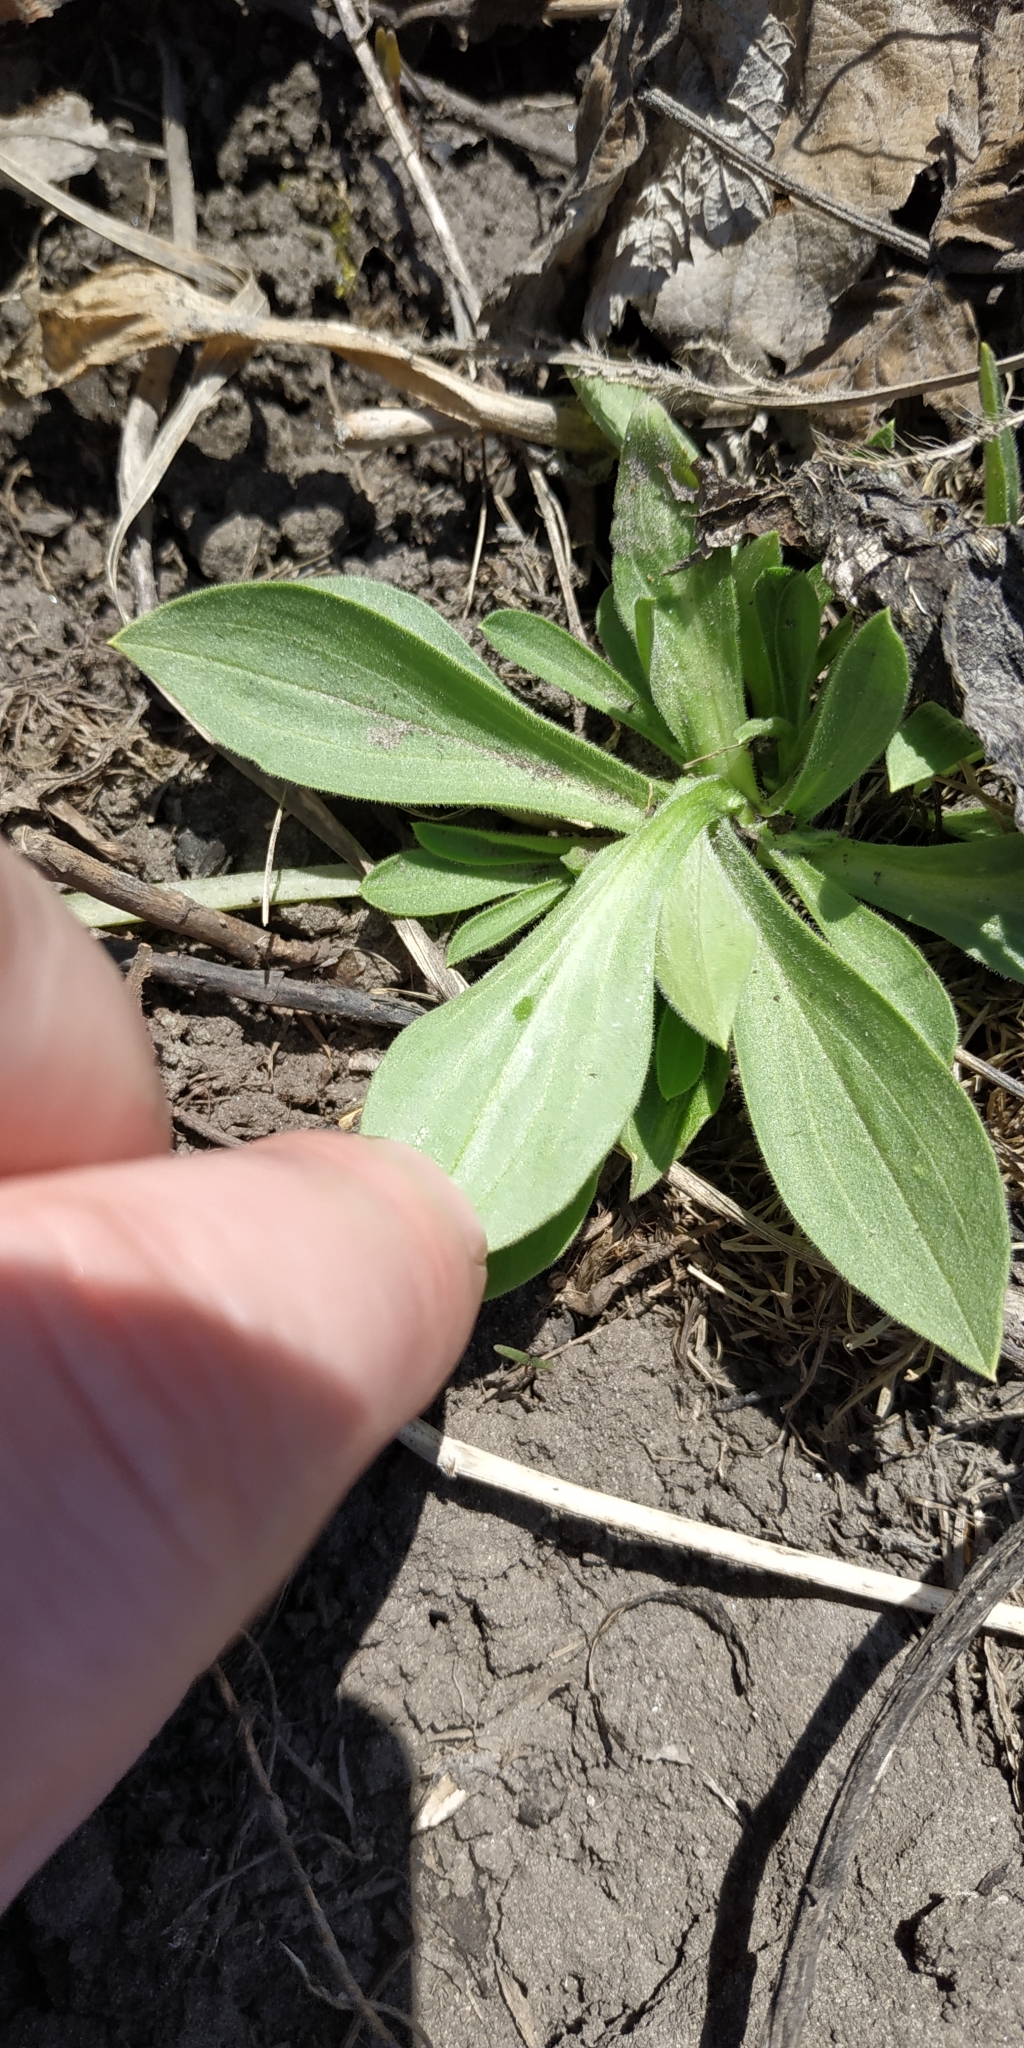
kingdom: Plantae
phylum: Tracheophyta
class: Magnoliopsida
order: Caryophyllales
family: Caryophyllaceae
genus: Silene
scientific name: Silene latifolia
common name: White campion
